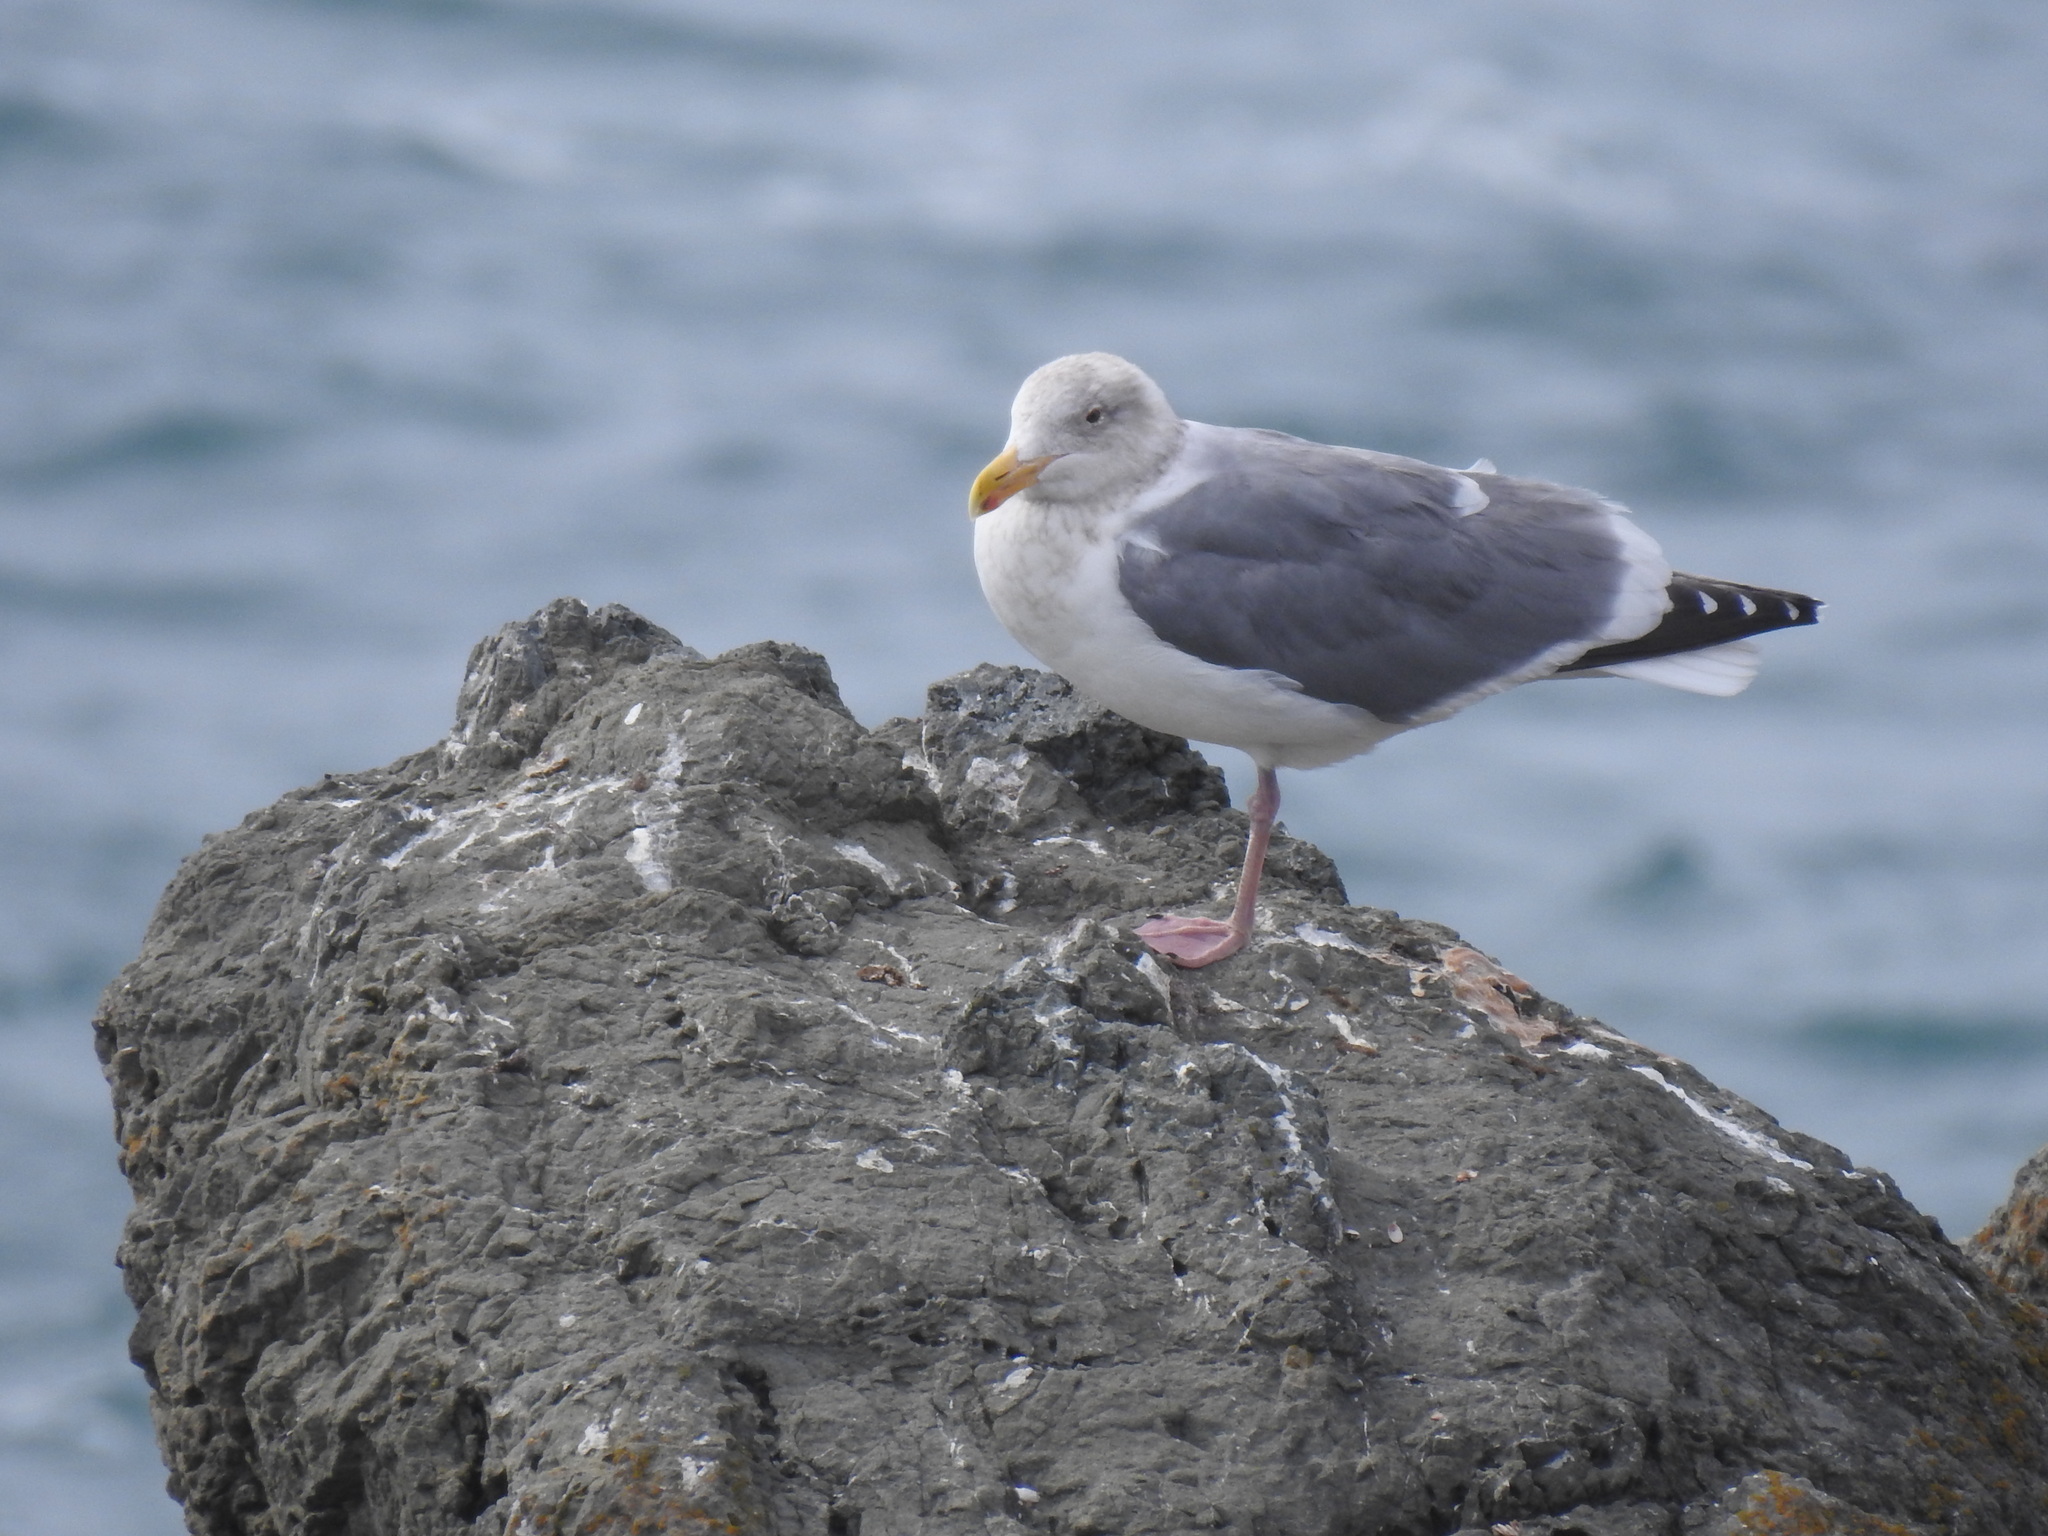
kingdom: Animalia
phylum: Chordata
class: Aves
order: Charadriiformes
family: Laridae
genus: Larus
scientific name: Larus
